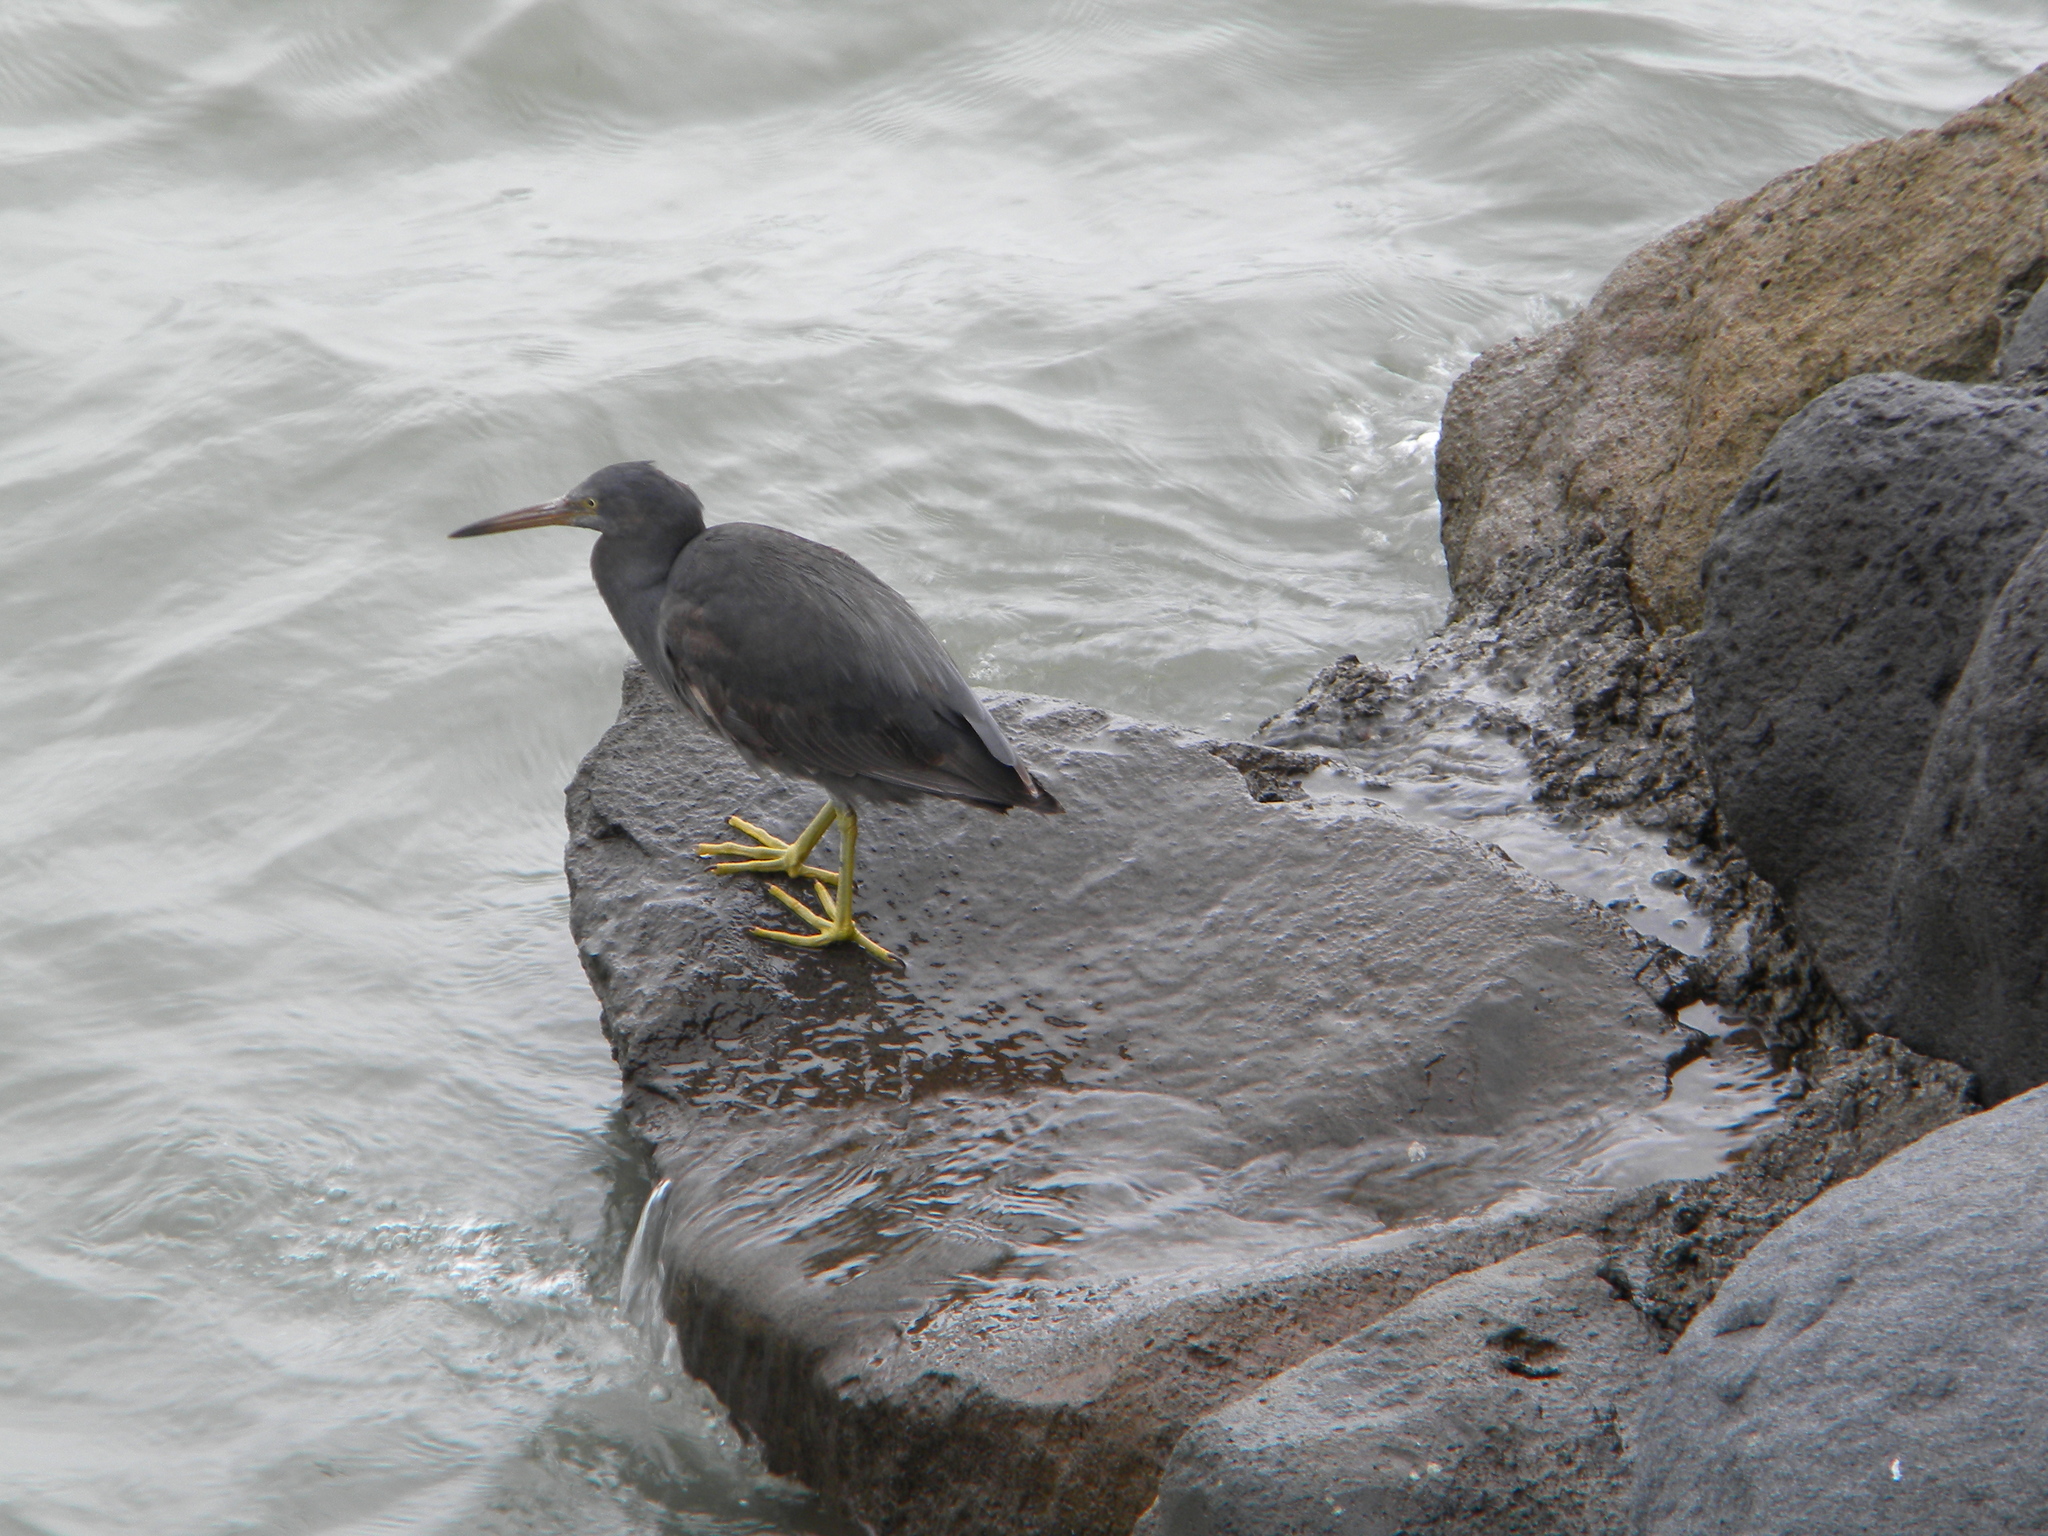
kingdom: Animalia
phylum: Chordata
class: Aves
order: Pelecaniformes
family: Ardeidae
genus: Egretta
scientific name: Egretta sacra
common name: Pacific reef heron
